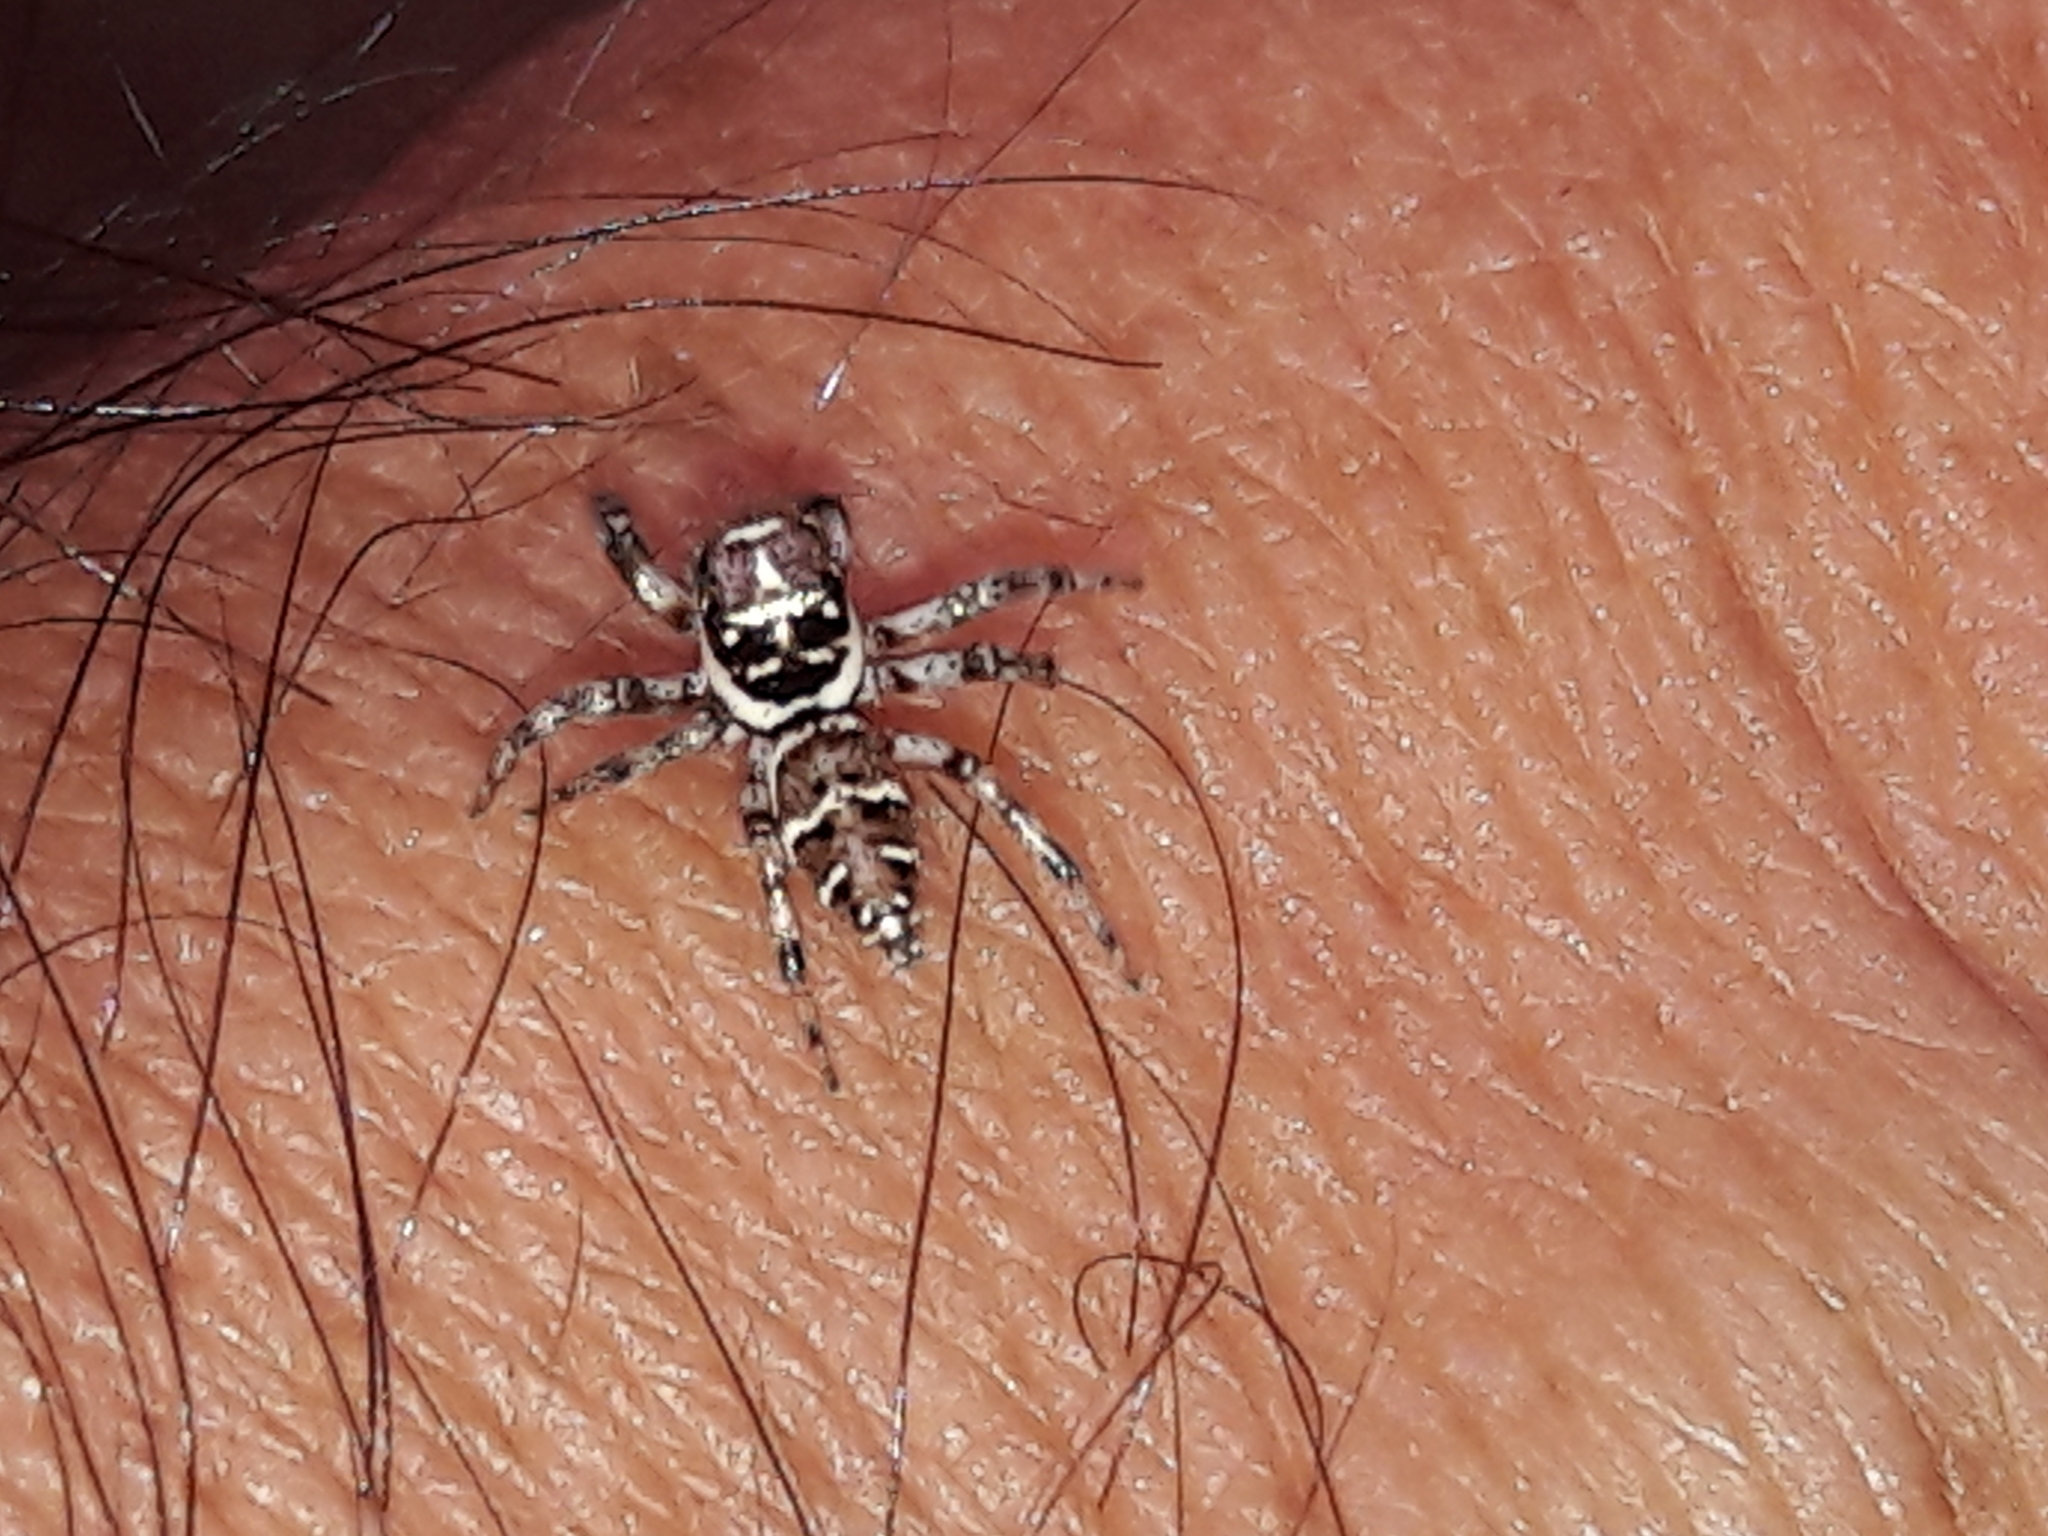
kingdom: Animalia
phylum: Arthropoda
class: Arachnida
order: Araneae
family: Salticidae
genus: Philira
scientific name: Philira micans
